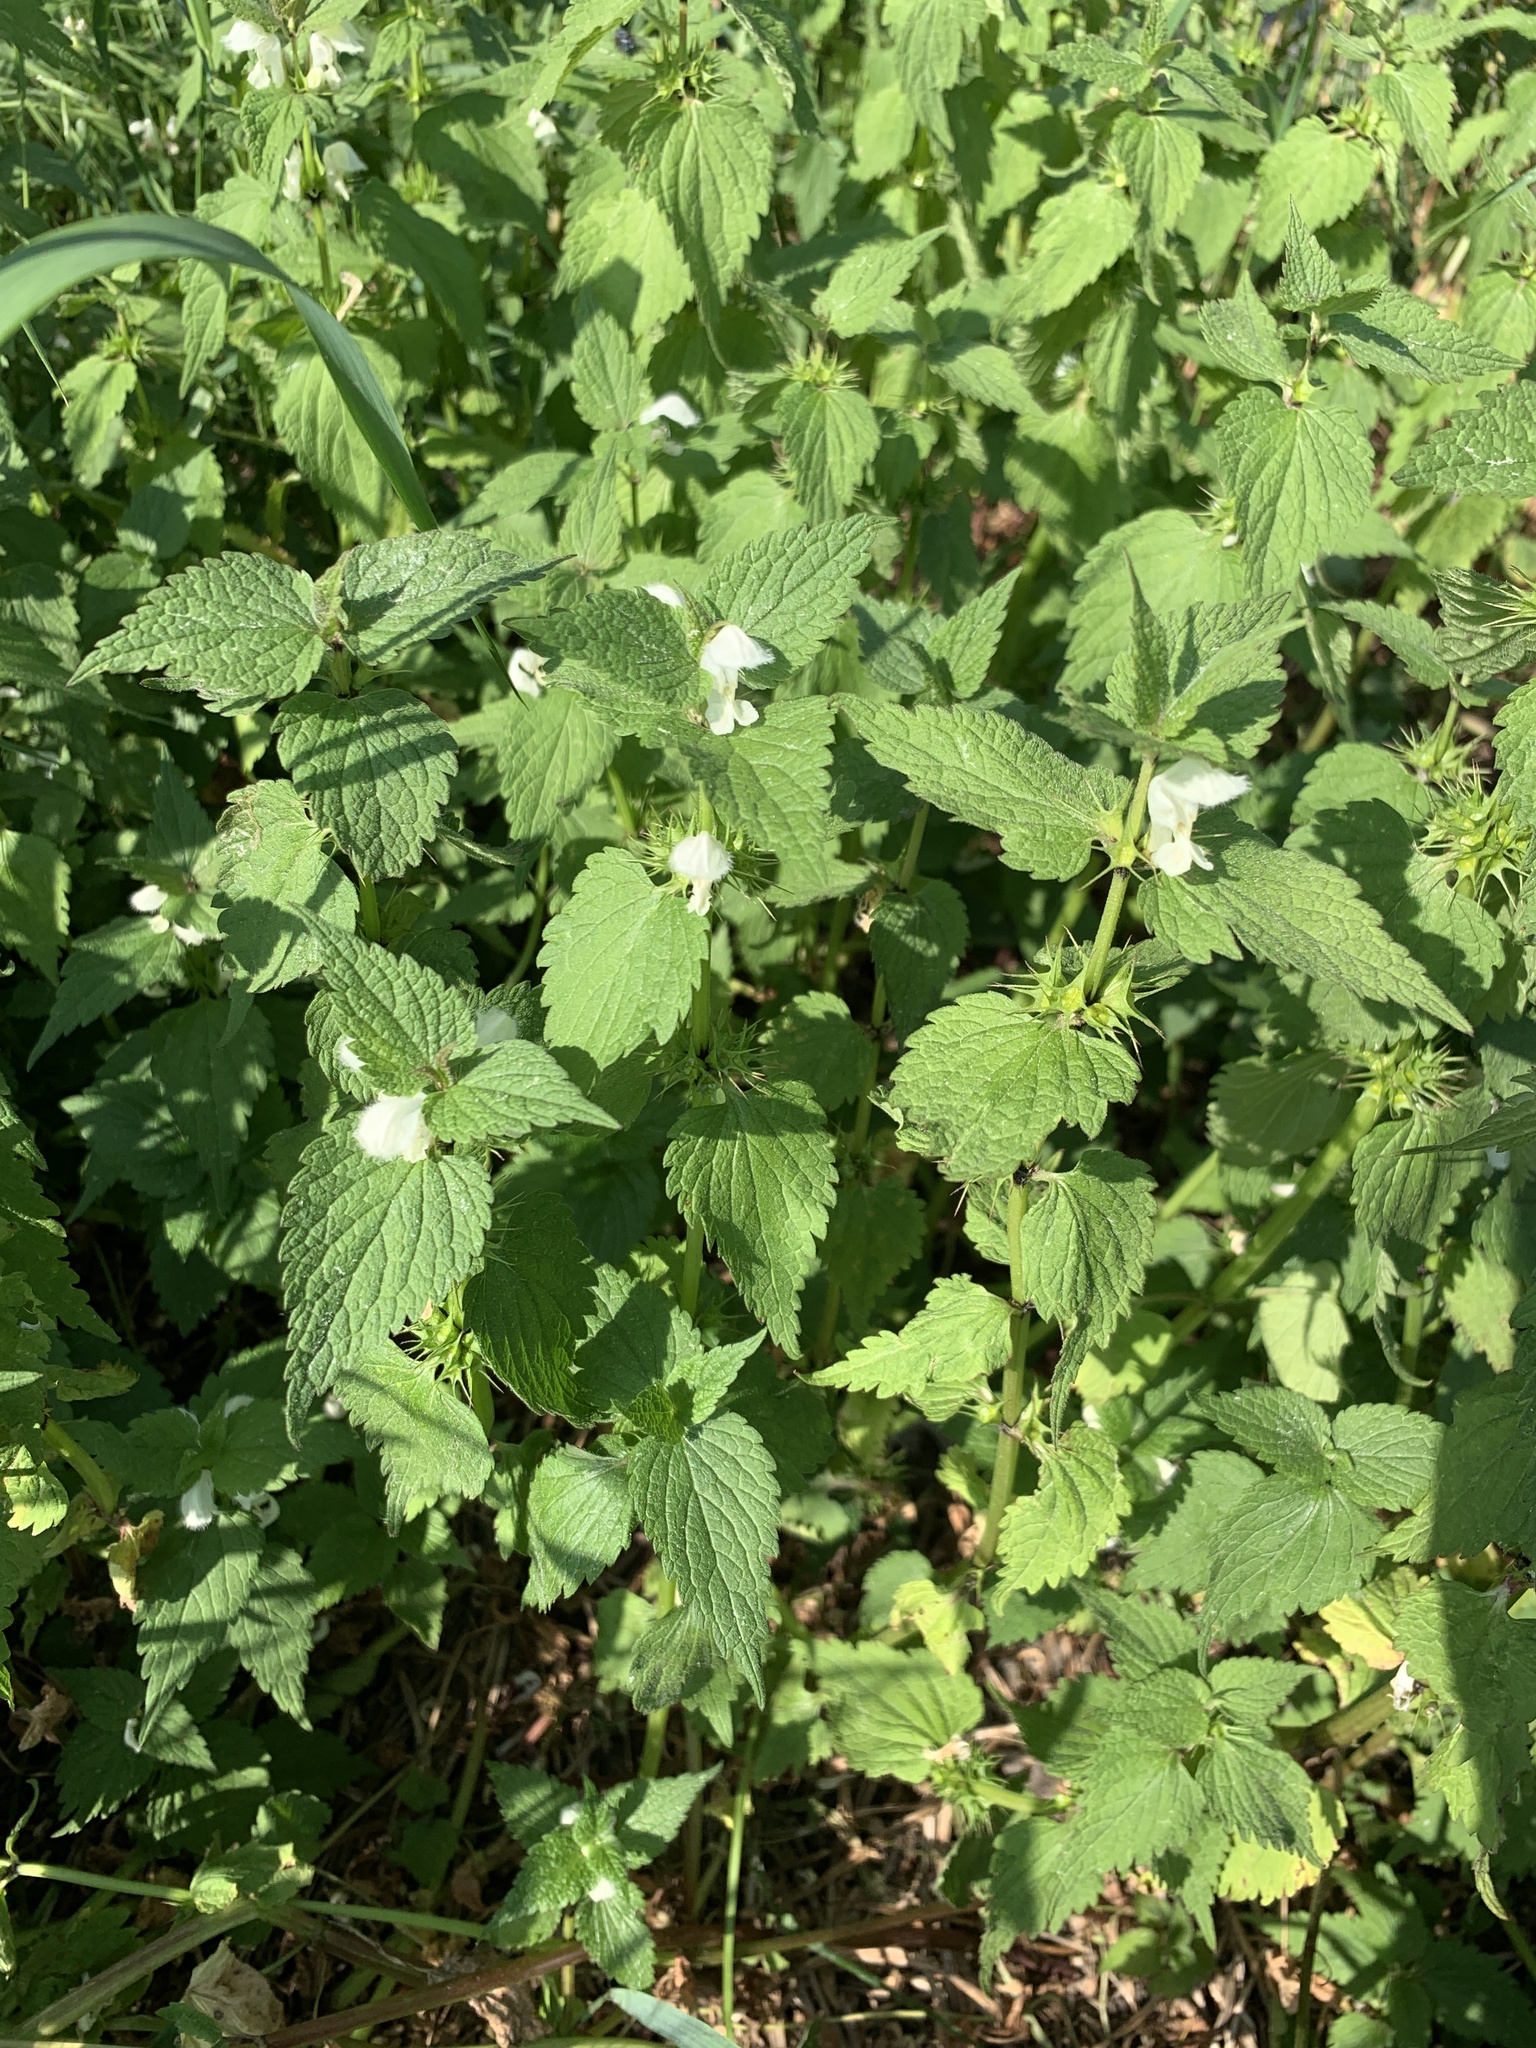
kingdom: Plantae
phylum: Tracheophyta
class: Magnoliopsida
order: Lamiales
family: Lamiaceae
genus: Lamium
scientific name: Lamium album
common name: White dead-nettle
